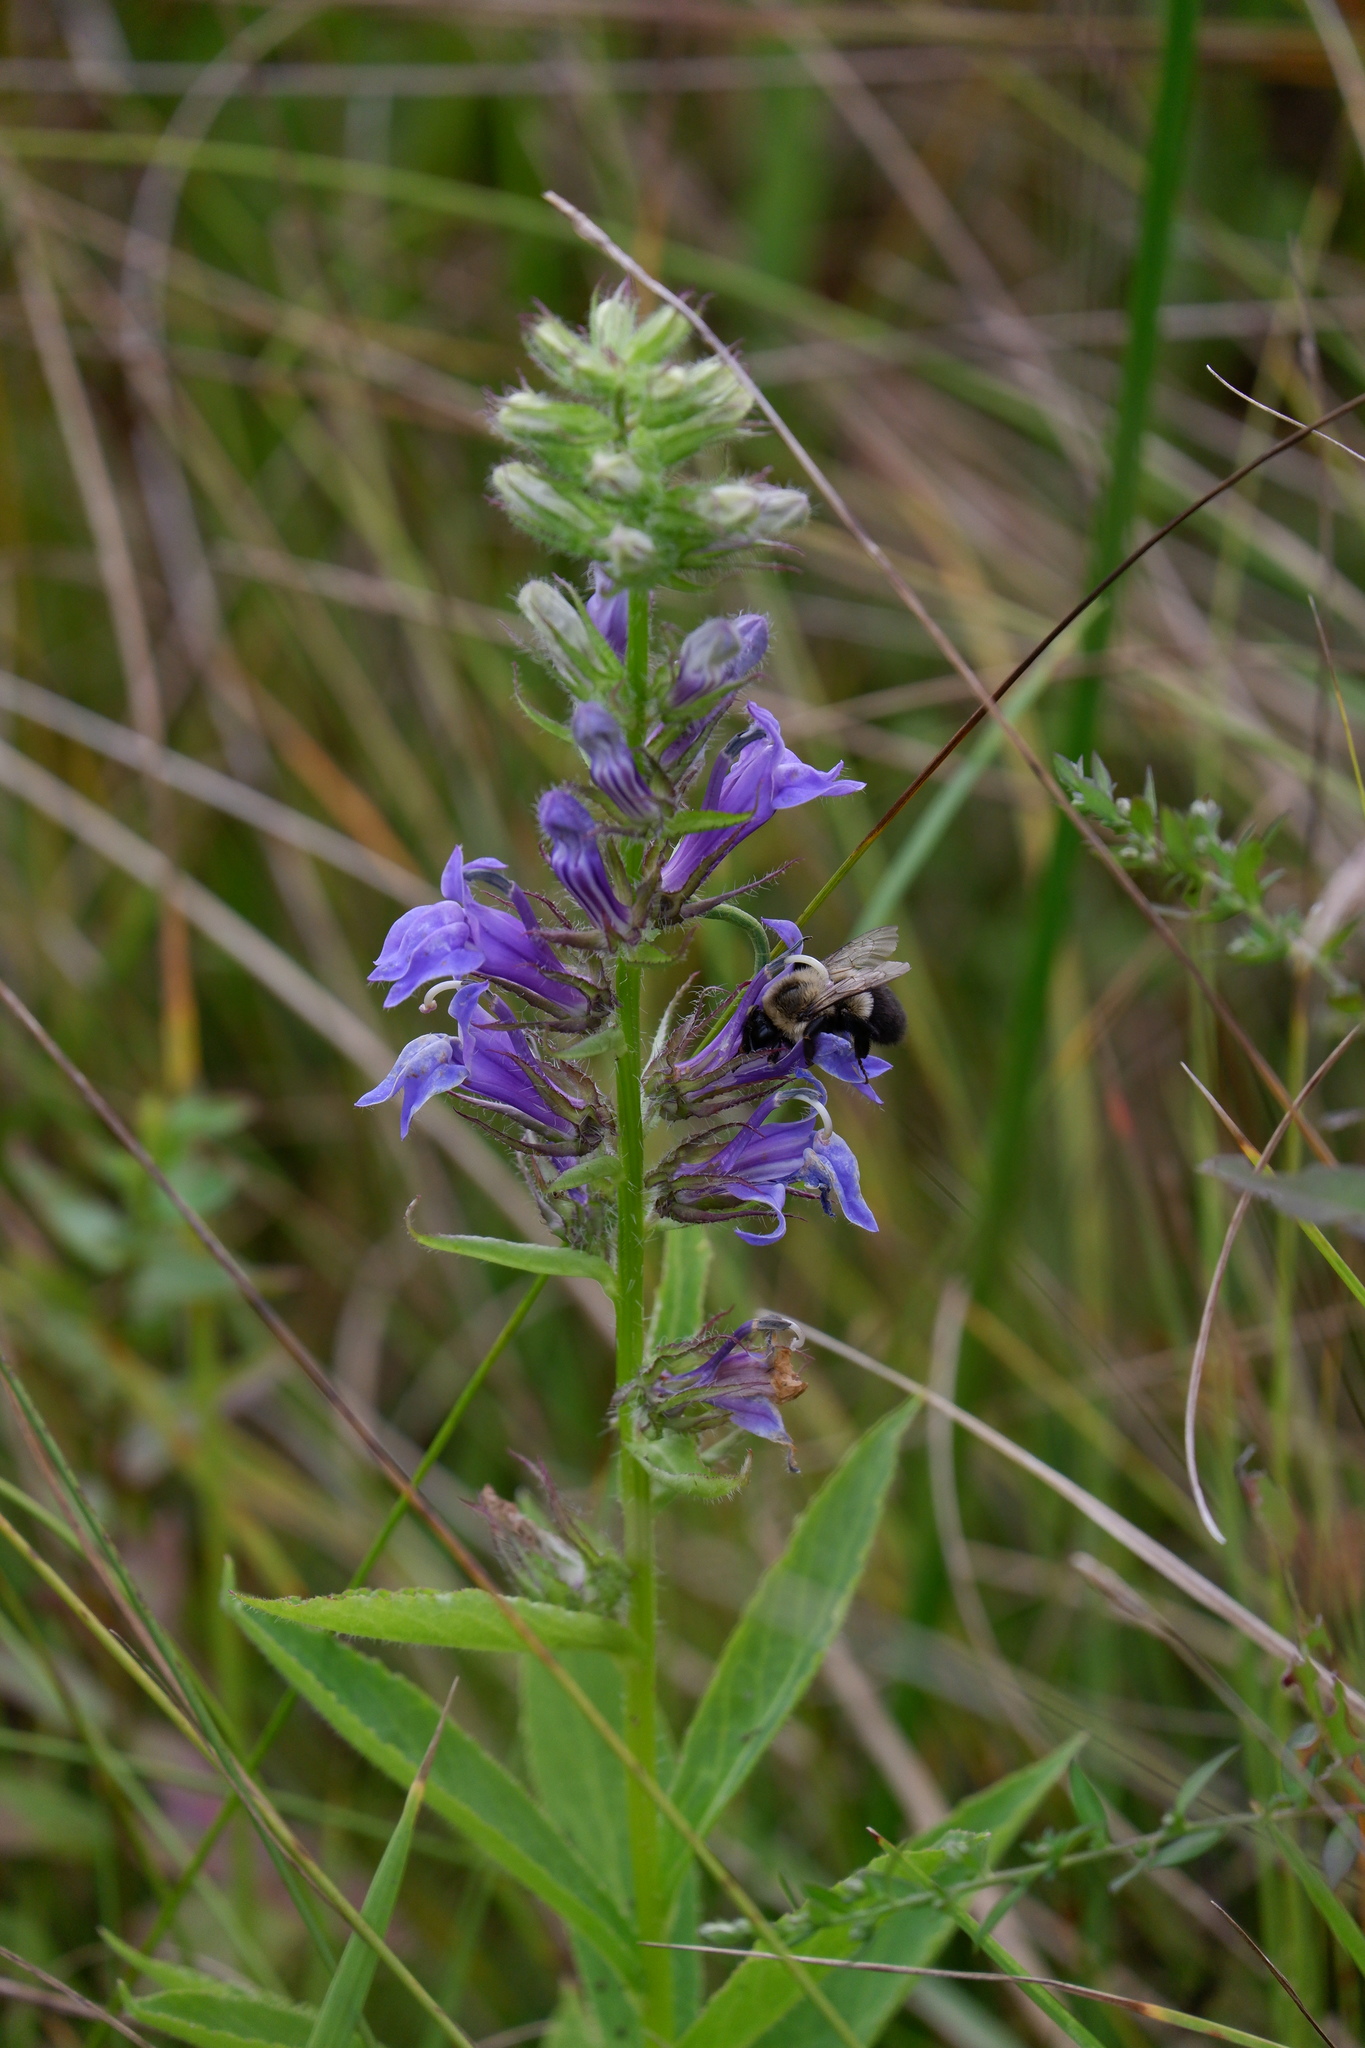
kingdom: Animalia
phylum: Arthropoda
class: Insecta
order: Hymenoptera
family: Apidae
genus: Bombus
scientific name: Bombus impatiens
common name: Common eastern bumble bee
